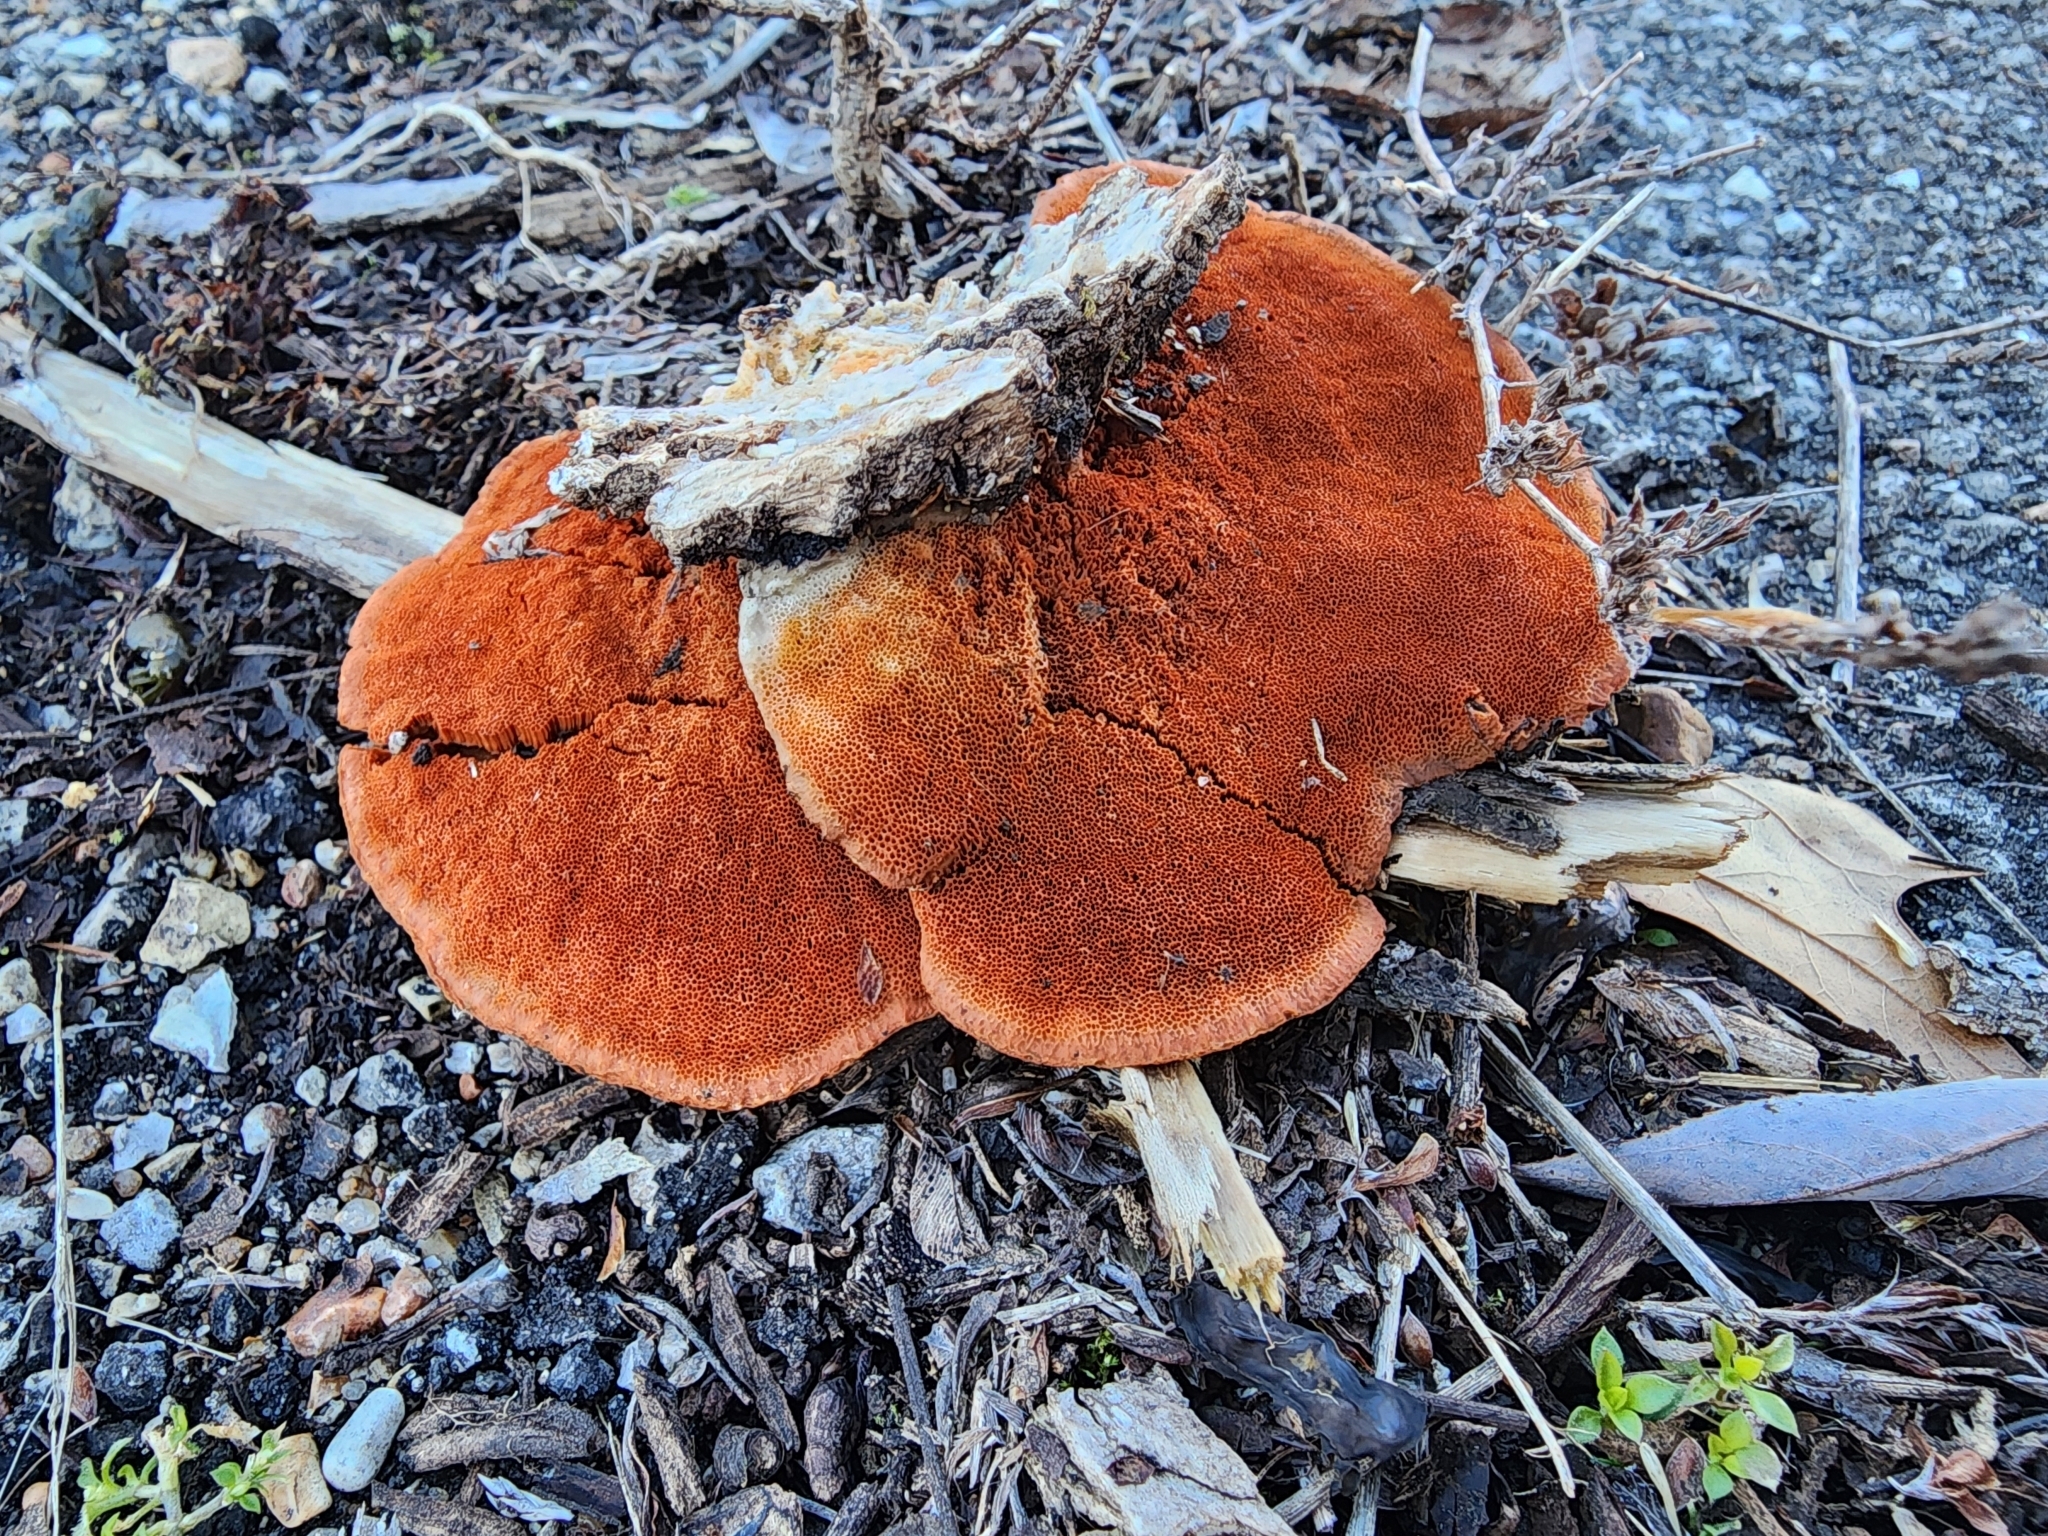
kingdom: Fungi
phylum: Basidiomycota
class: Agaricomycetes
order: Polyporales
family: Polyporaceae
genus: Trametes
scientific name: Trametes cinnabarina
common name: Northern cinnabar polypore
